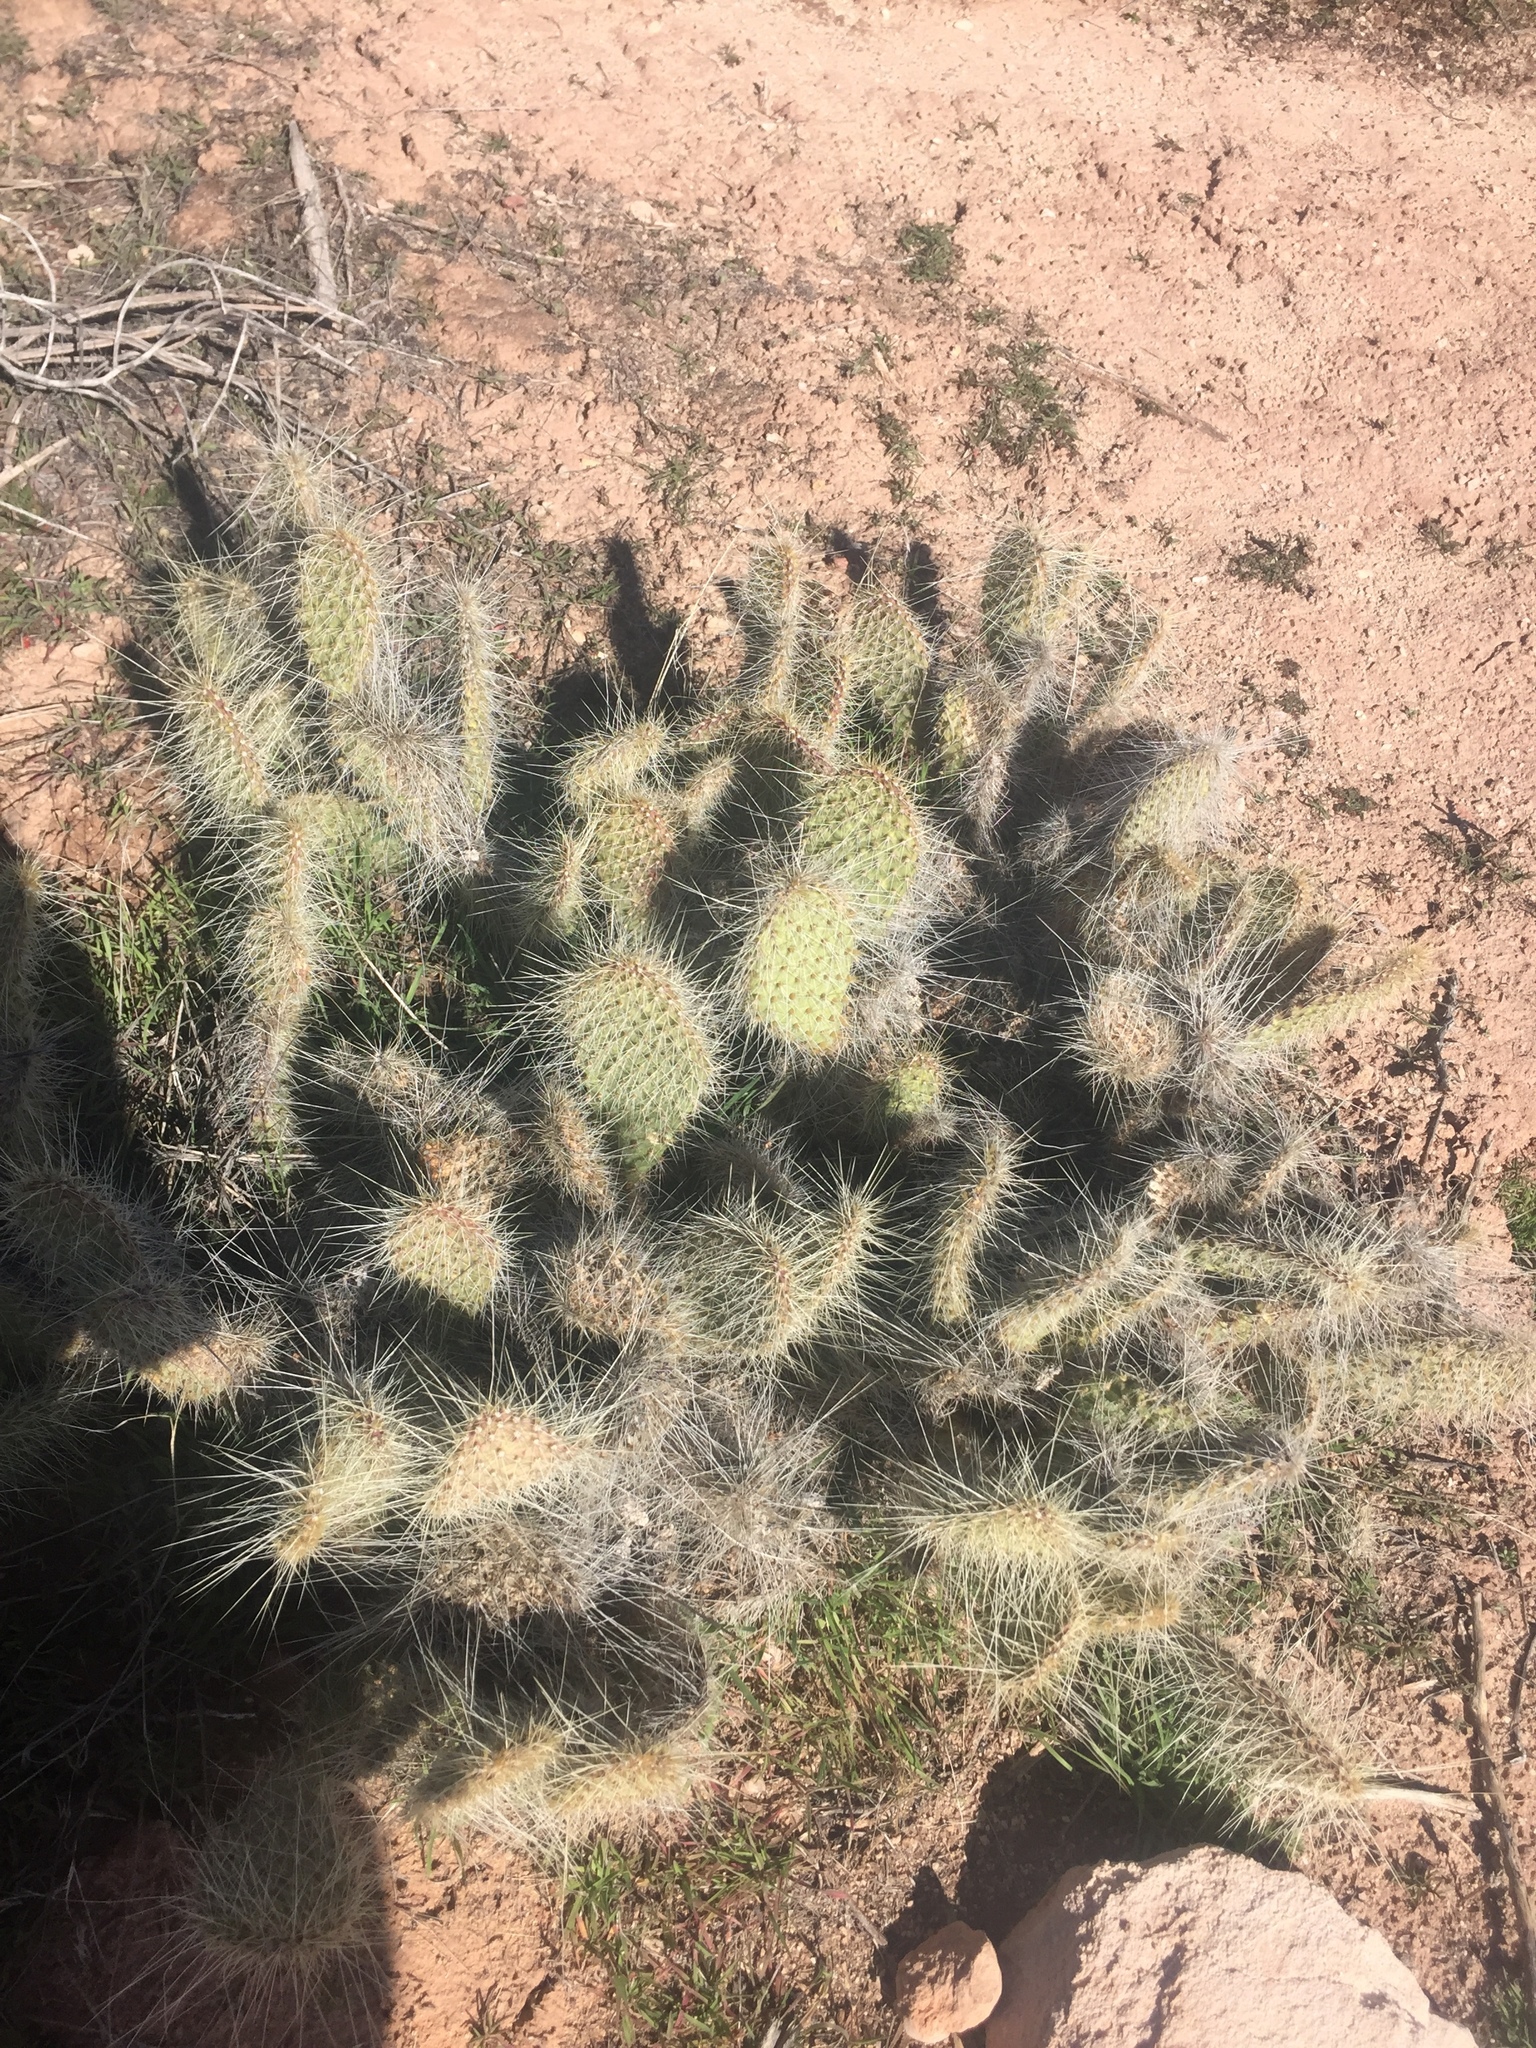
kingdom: Plantae
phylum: Tracheophyta
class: Magnoliopsida
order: Caryophyllales
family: Cactaceae
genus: Opuntia
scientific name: Opuntia polyacantha
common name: Plains prickly-pear
